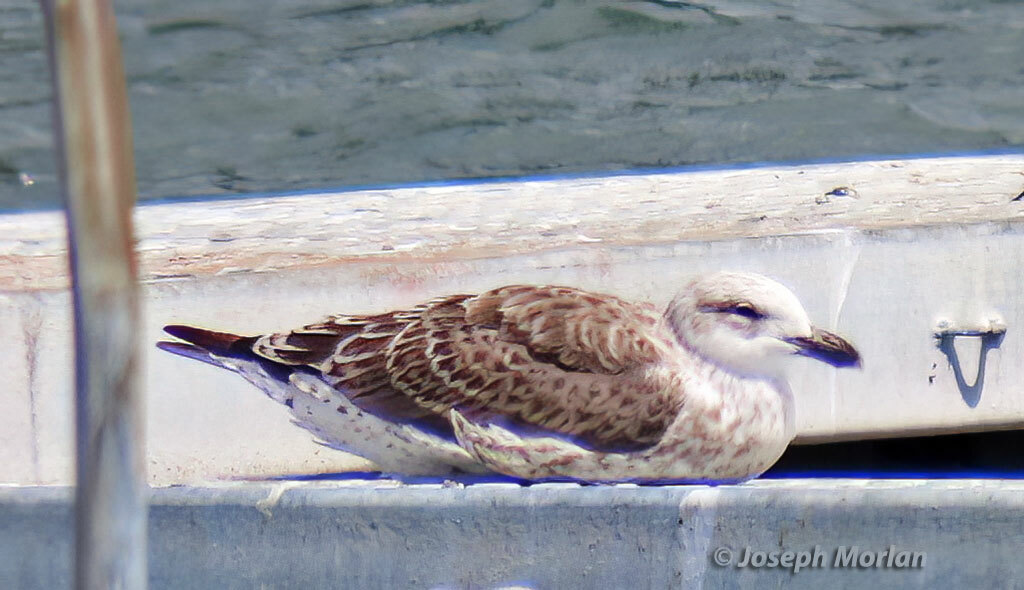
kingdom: Animalia
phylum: Chordata
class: Aves
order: Charadriiformes
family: Laridae
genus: Larus
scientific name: Larus dominicanus
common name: Kelp gull
